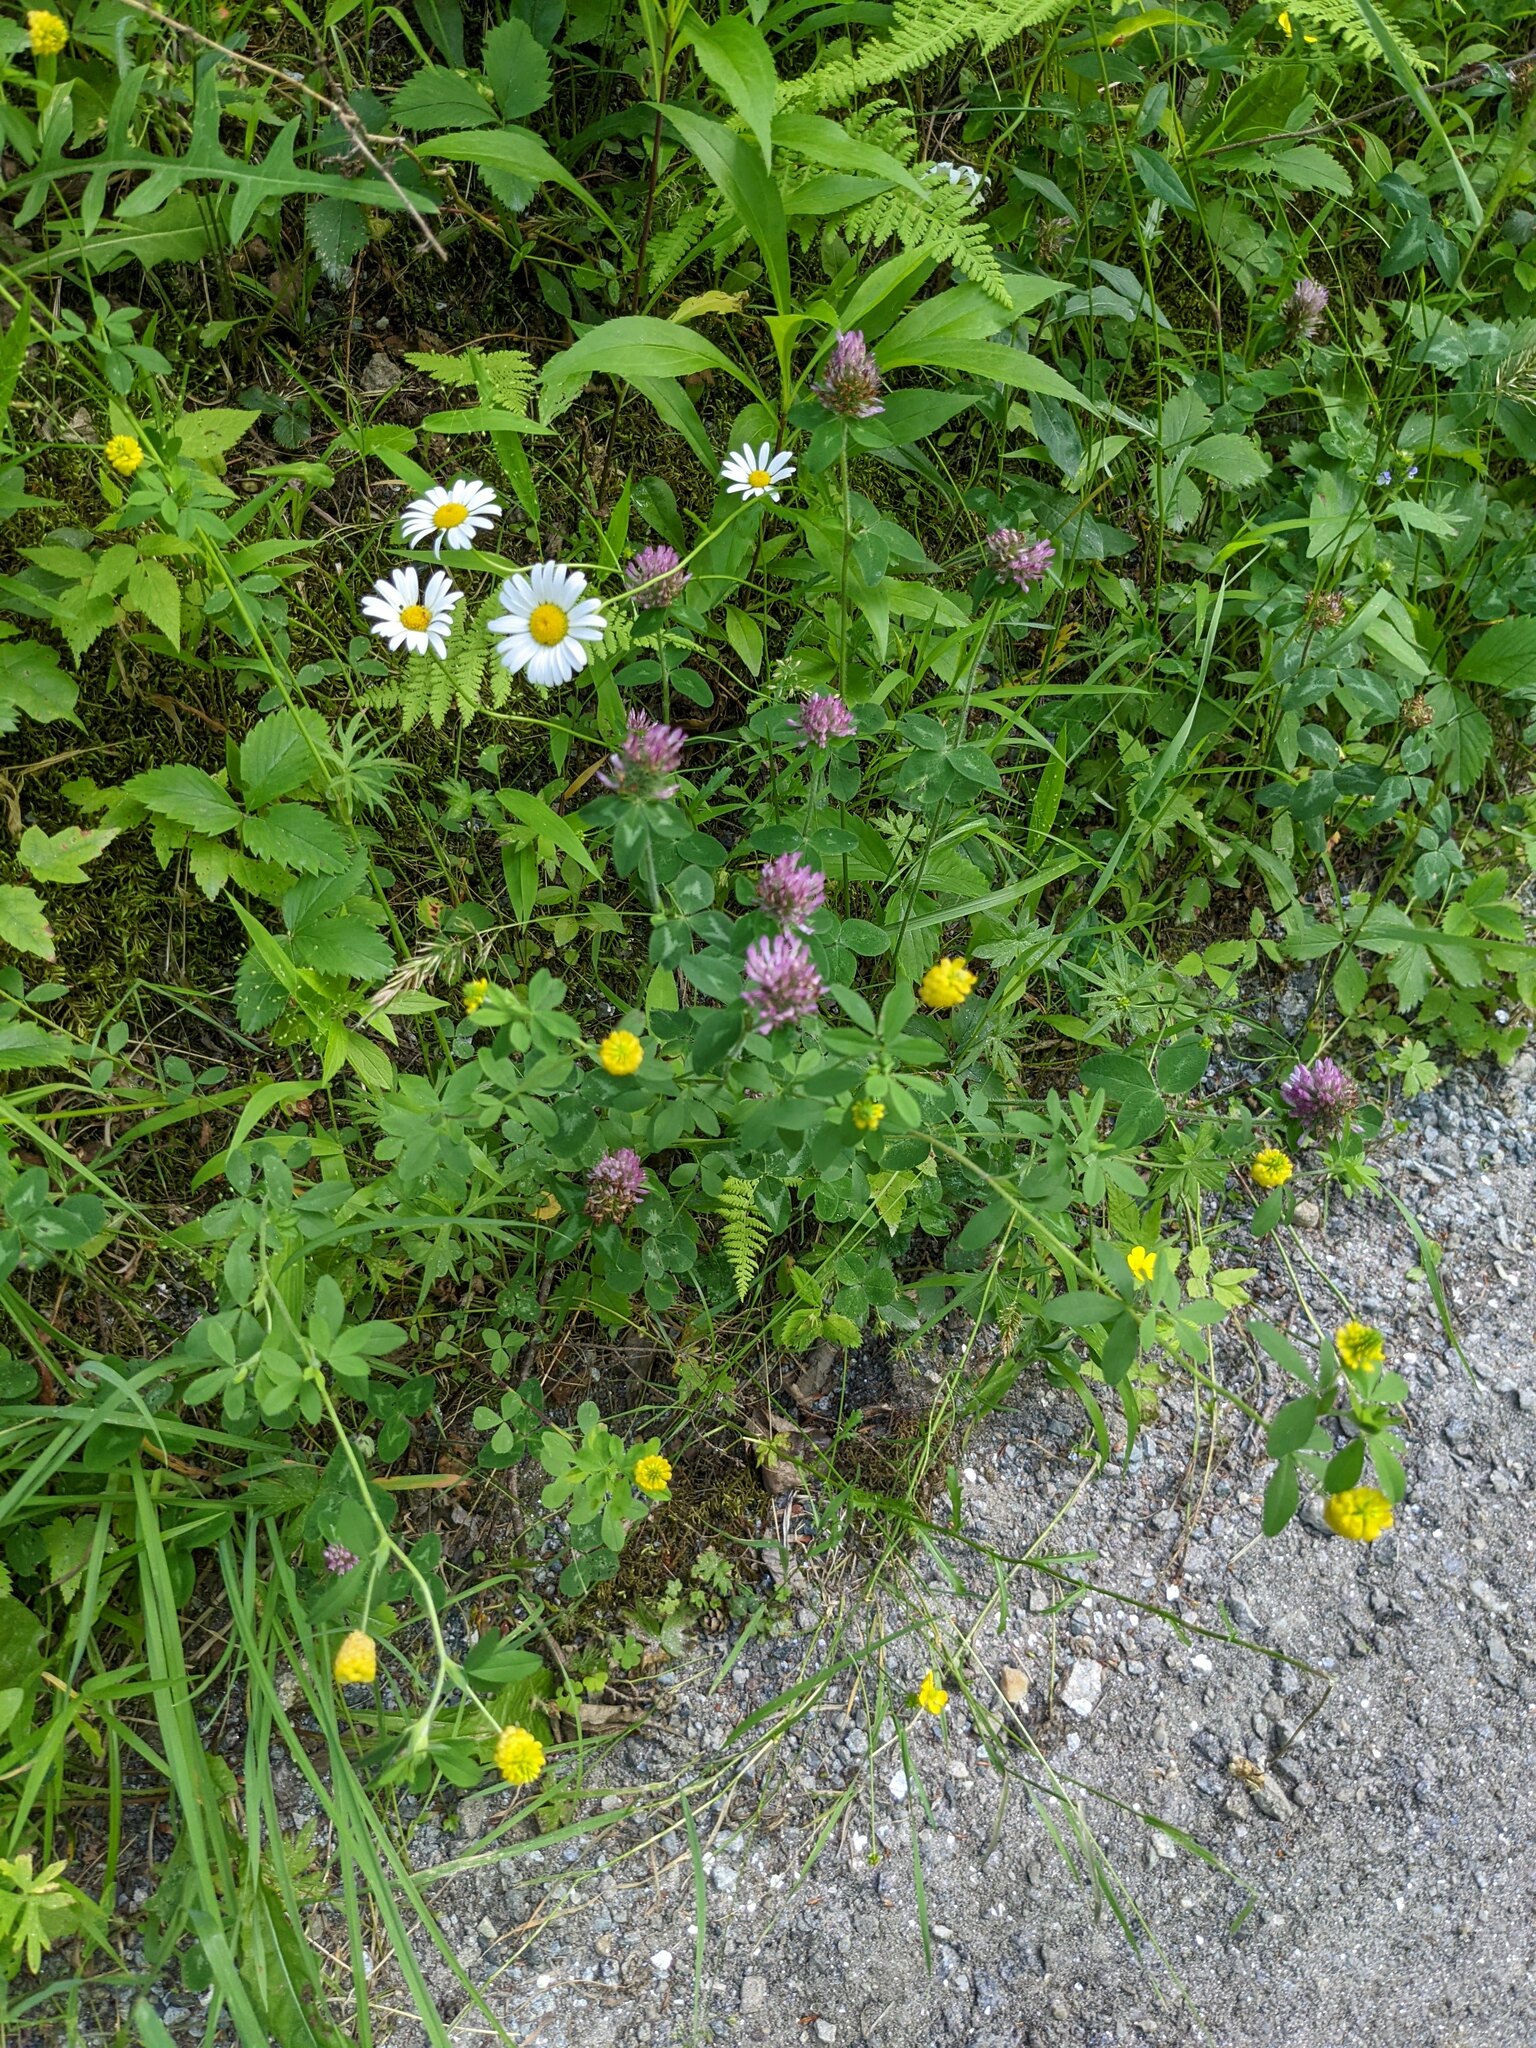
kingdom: Plantae
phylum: Tracheophyta
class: Magnoliopsida
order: Fabales
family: Fabaceae
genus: Trifolium
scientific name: Trifolium pratense
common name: Red clover
